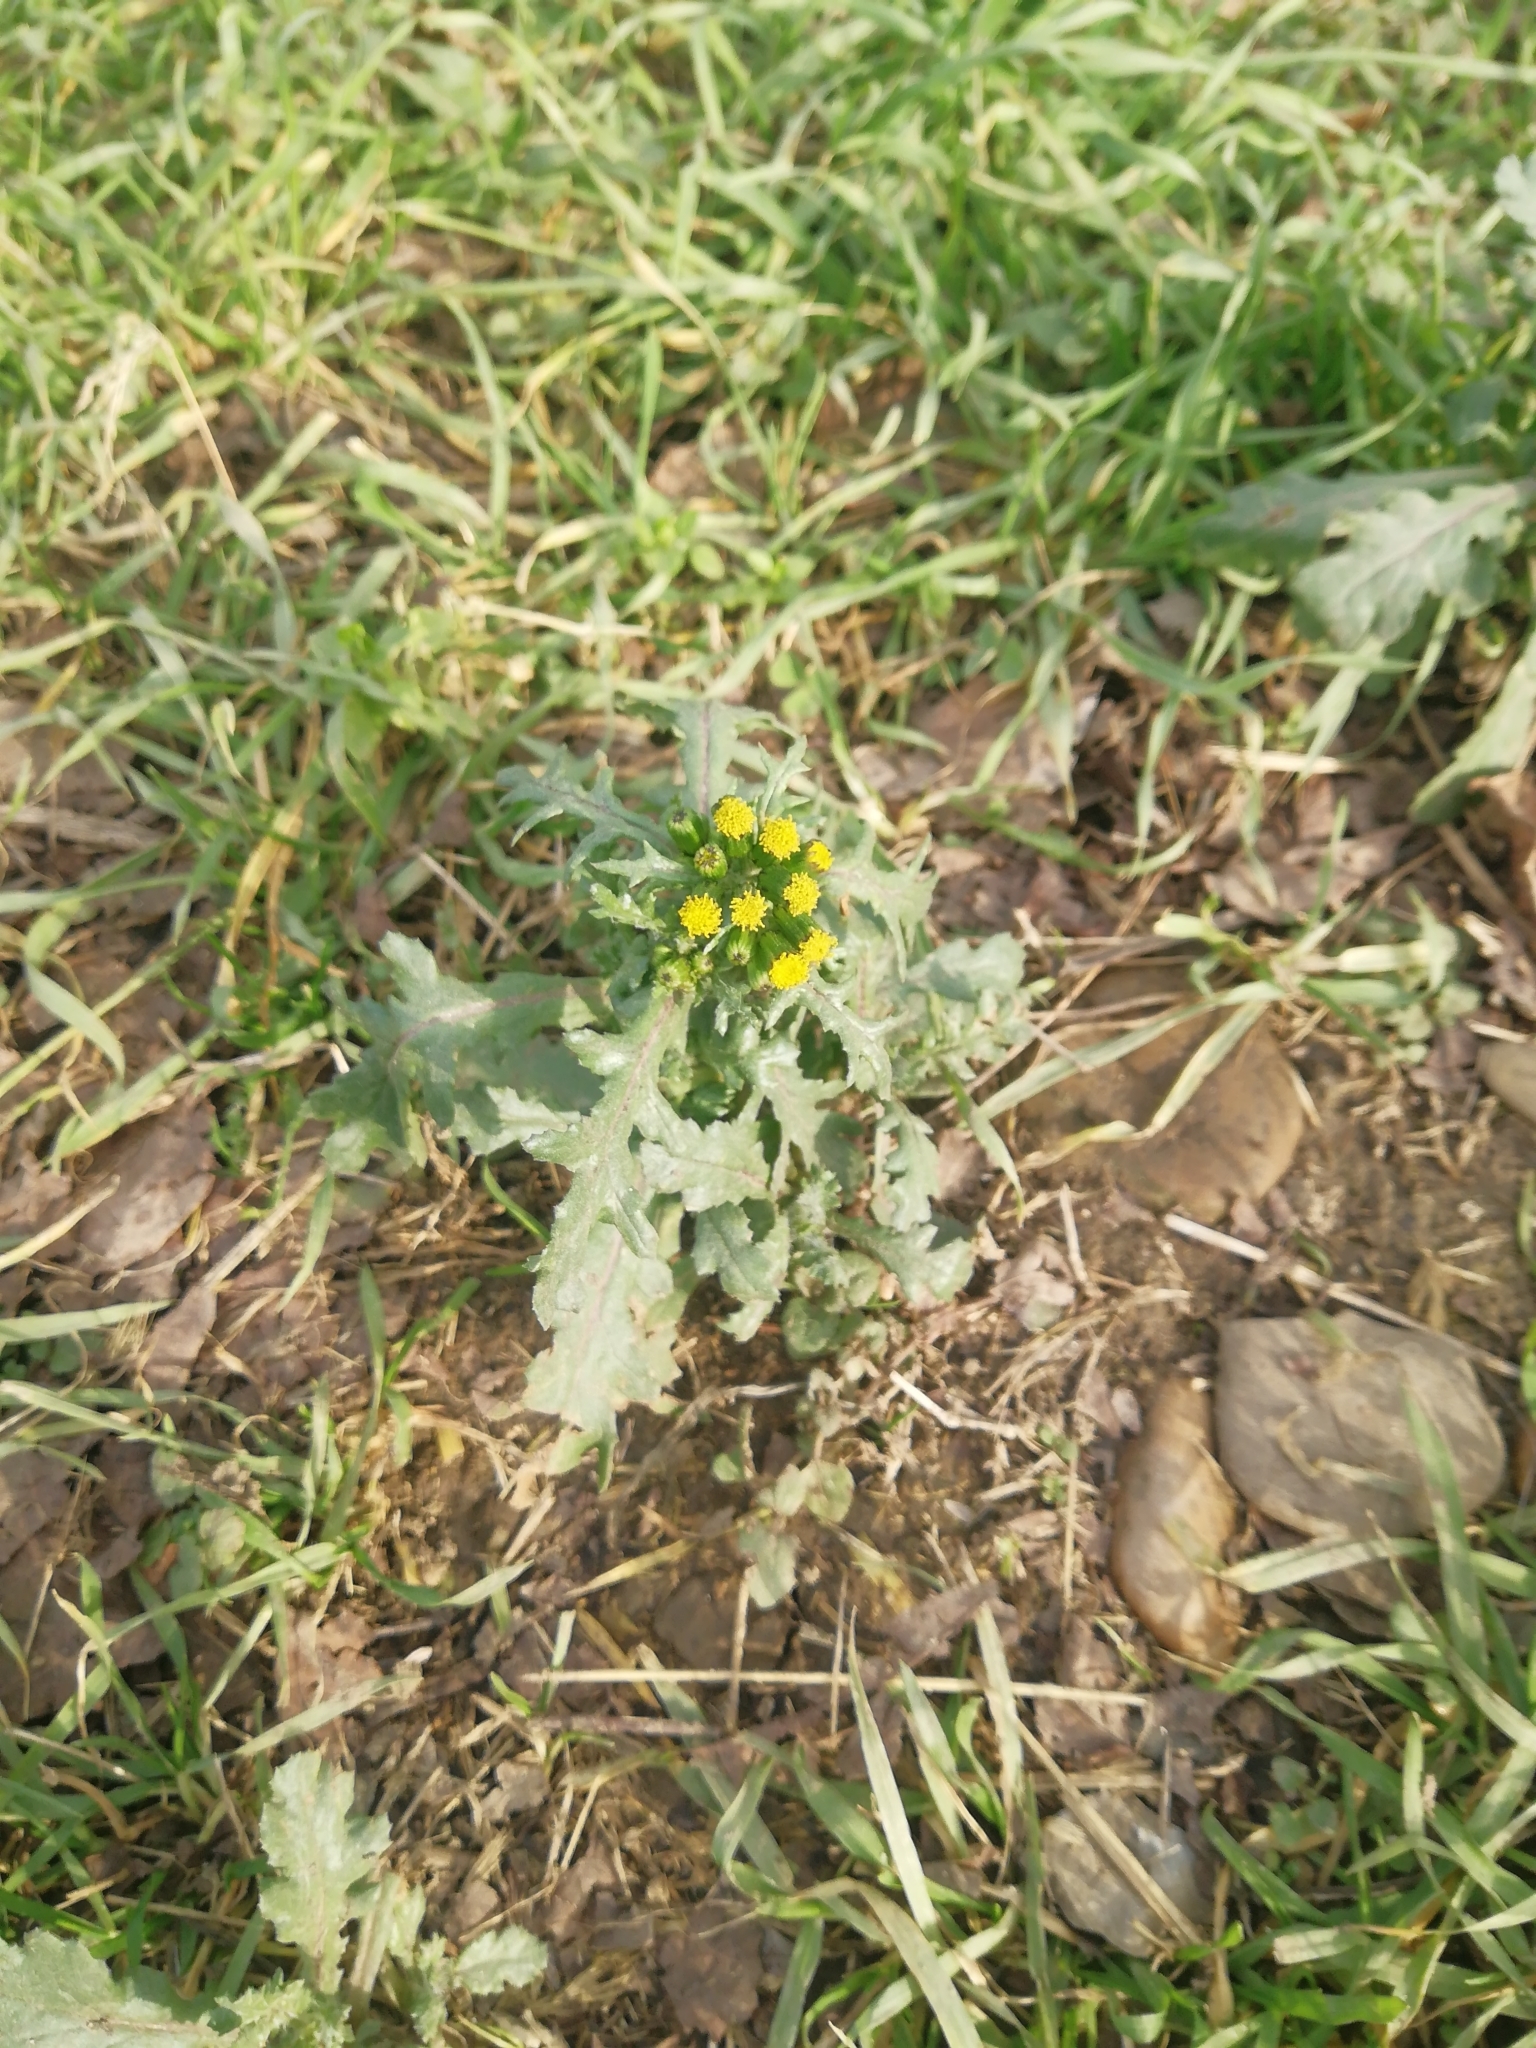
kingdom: Plantae
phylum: Tracheophyta
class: Magnoliopsida
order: Asterales
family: Asteraceae
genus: Senecio
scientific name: Senecio vulgaris
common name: Old-man-in-the-spring
